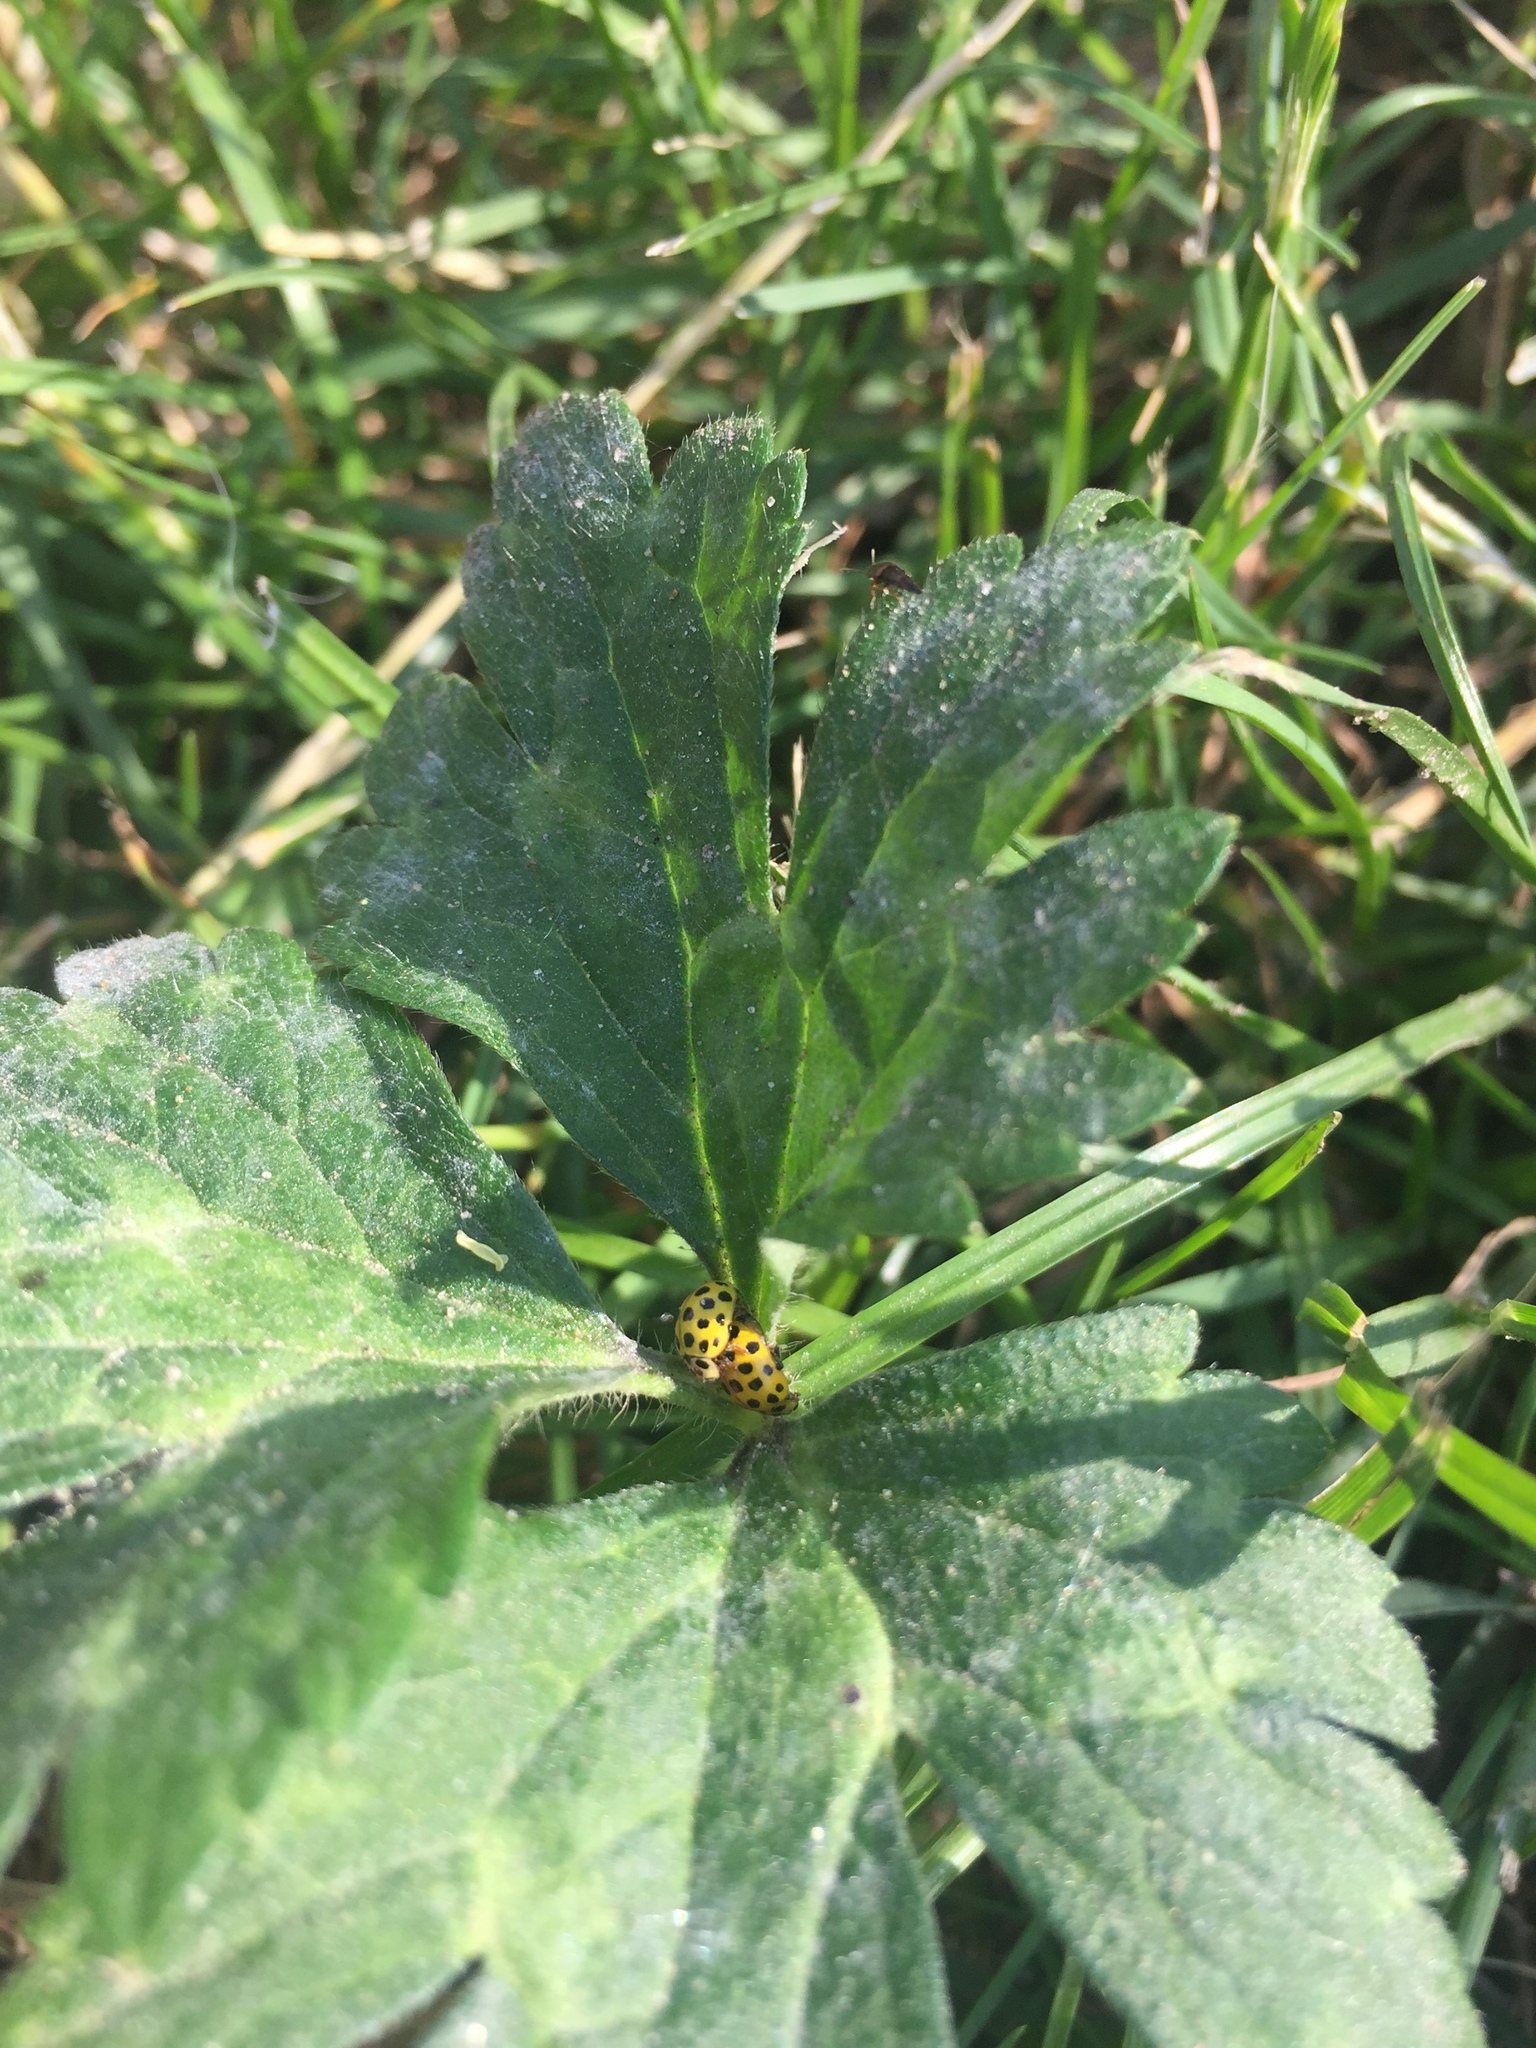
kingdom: Animalia
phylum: Arthropoda
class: Insecta
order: Coleoptera
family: Coccinellidae
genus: Psyllobora
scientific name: Psyllobora vigintiduopunctata
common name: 22-spot ladybird
